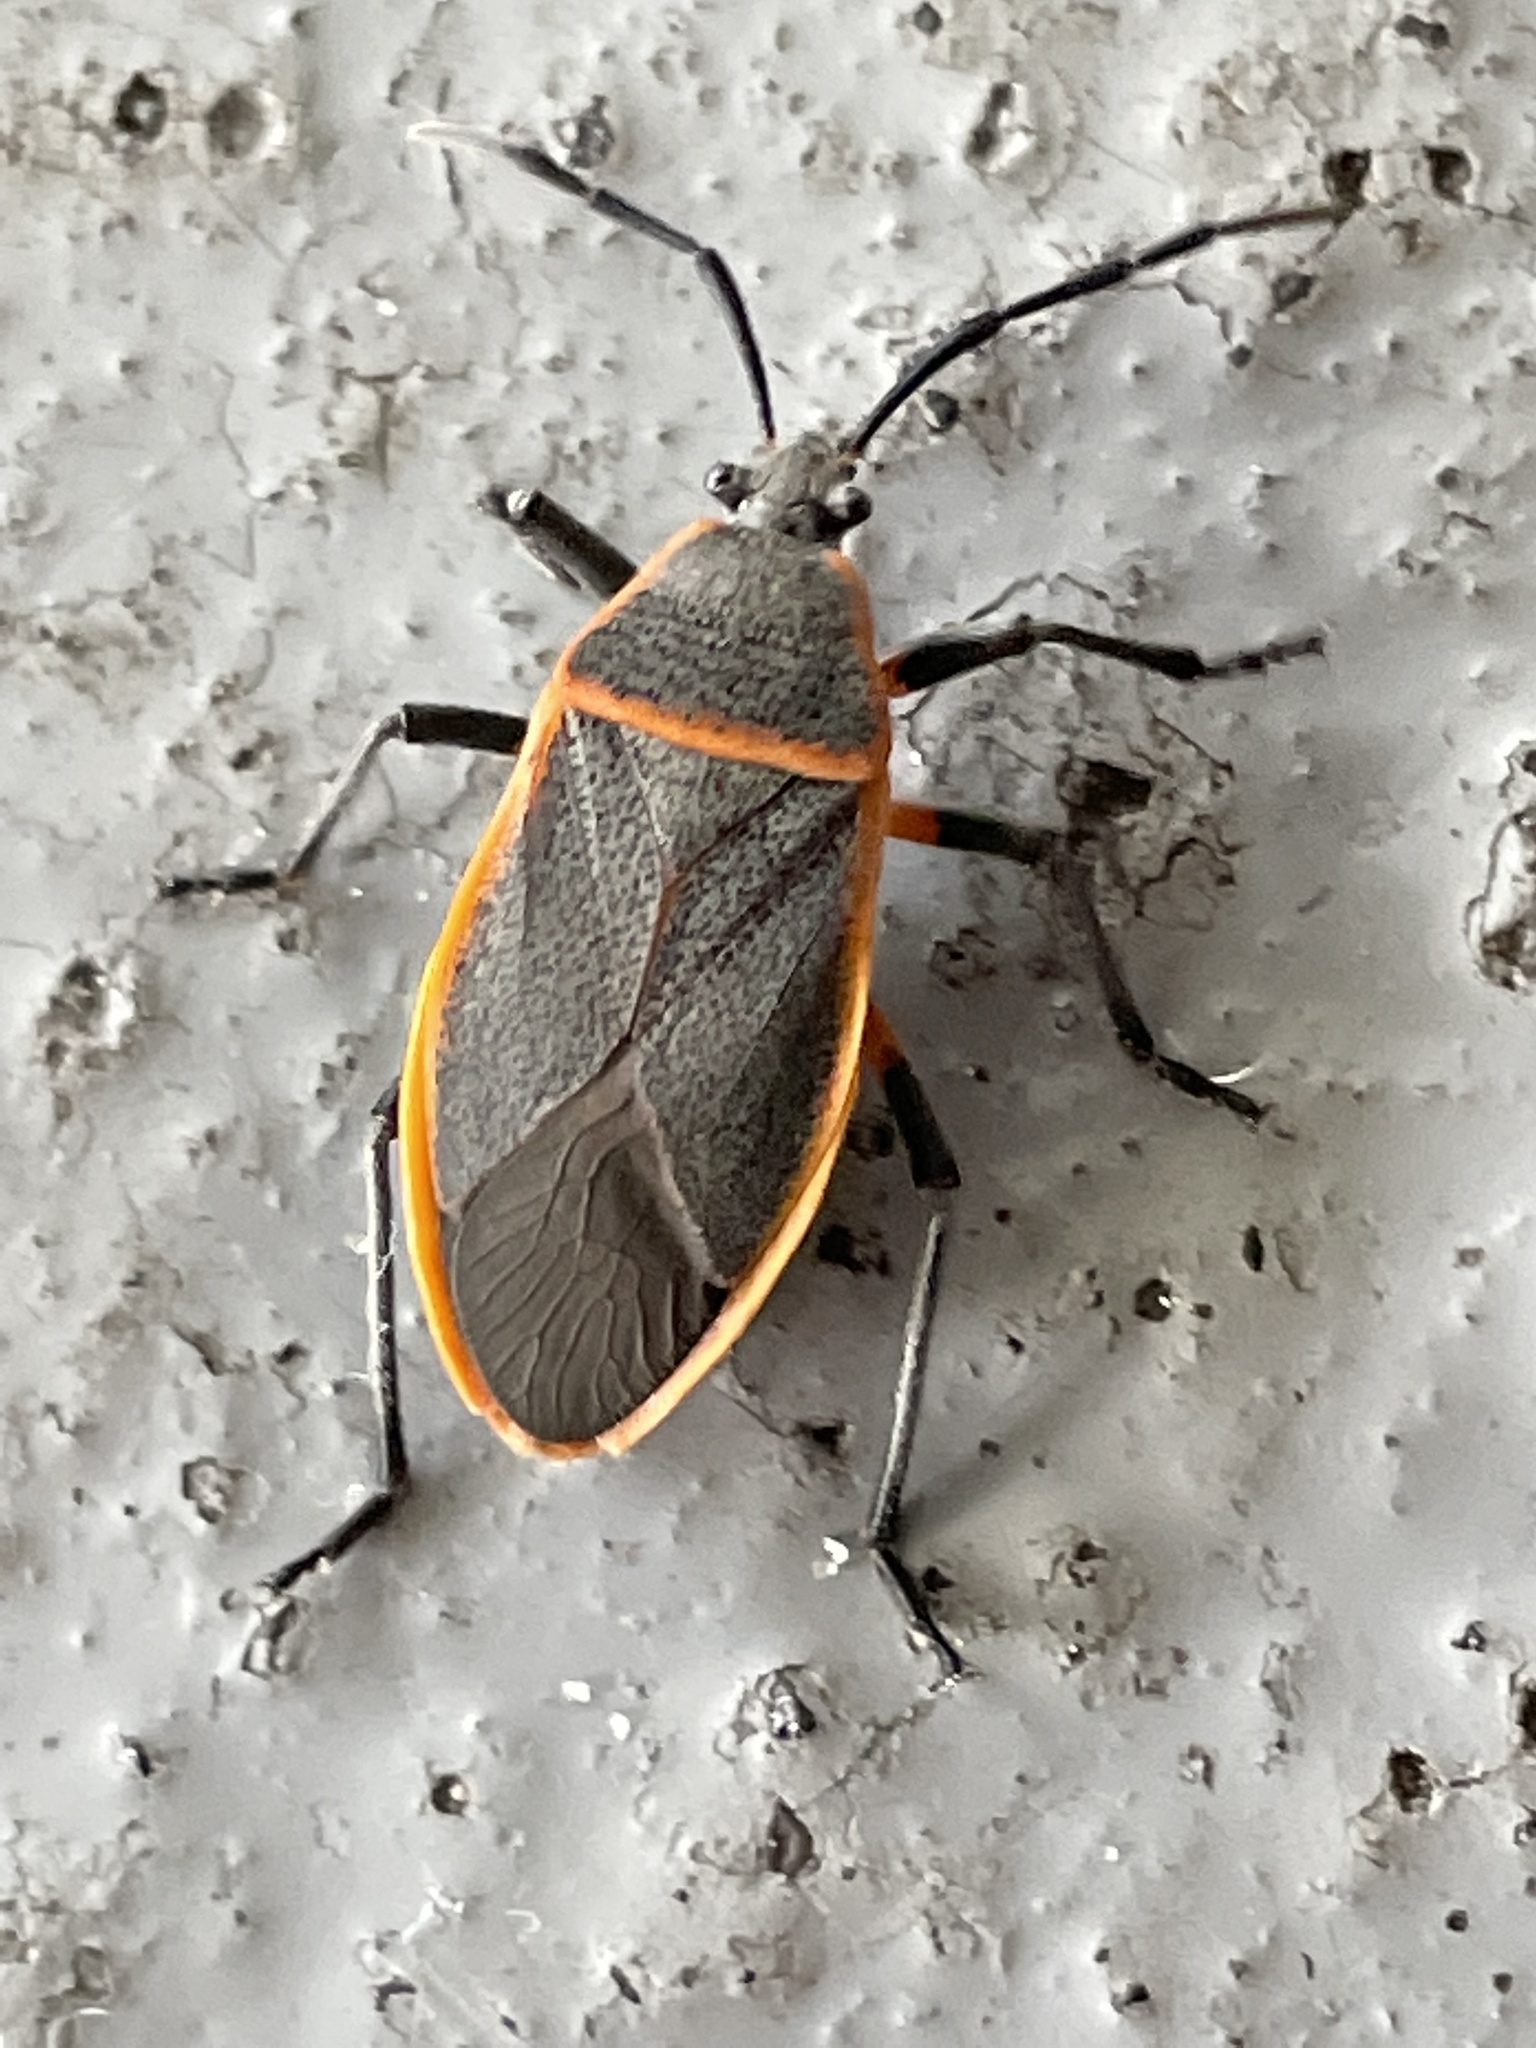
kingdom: Animalia
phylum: Arthropoda
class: Insecta
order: Hemiptera
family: Largidae
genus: Largus
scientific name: Largus succinctus
